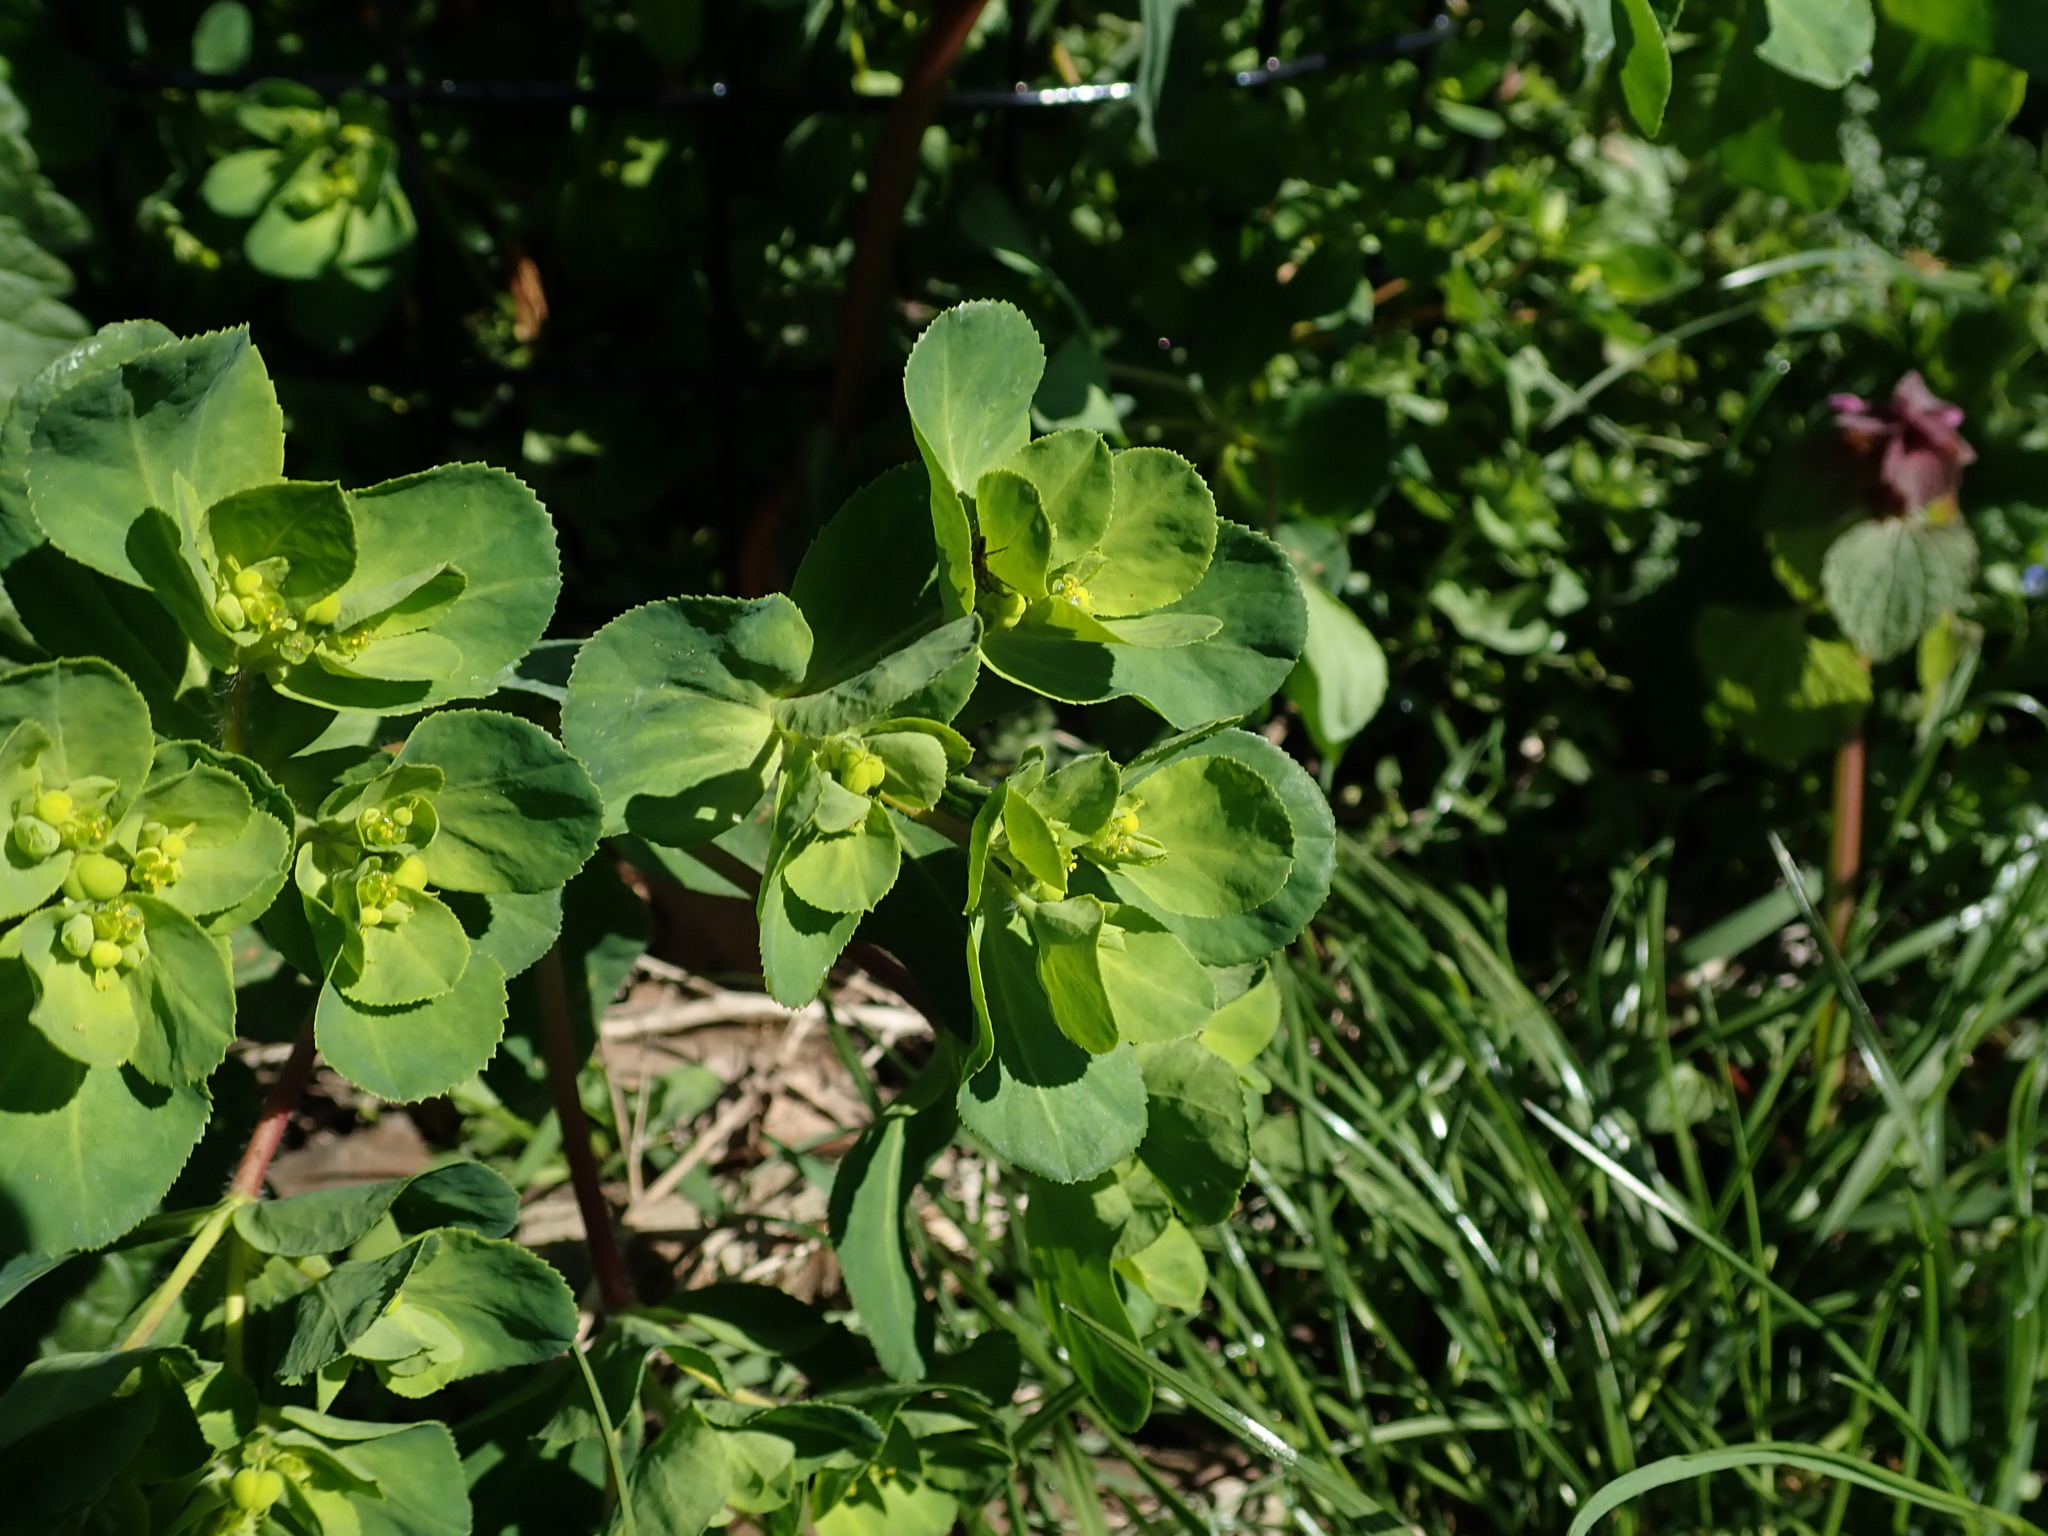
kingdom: Plantae
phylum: Tracheophyta
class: Magnoliopsida
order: Malpighiales
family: Euphorbiaceae
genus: Euphorbia
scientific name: Euphorbia helioscopia
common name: Sun spurge
